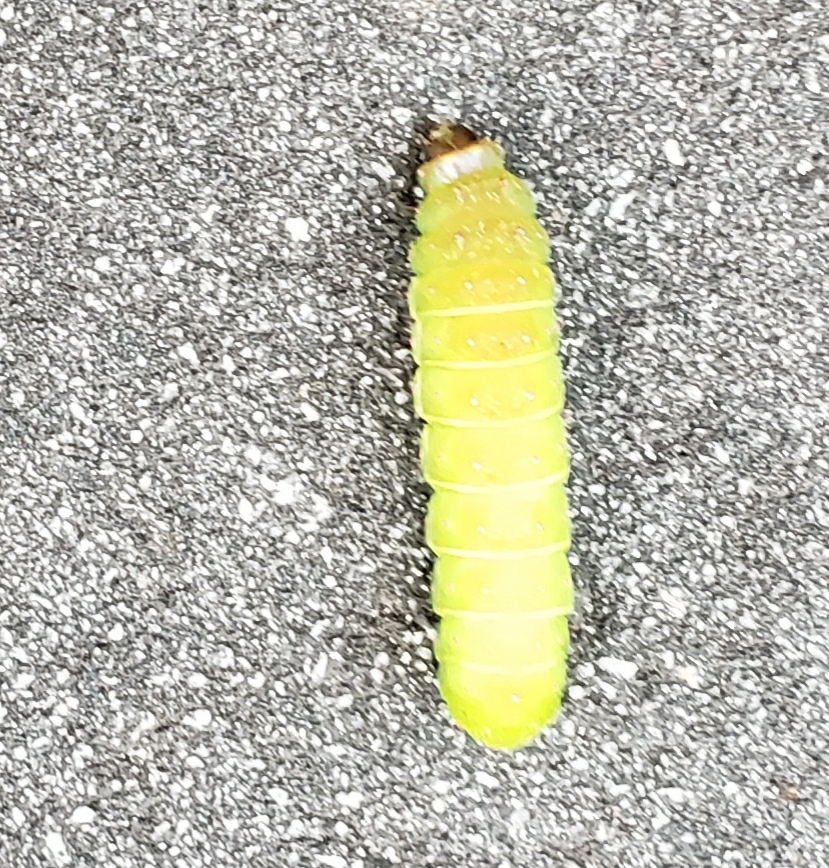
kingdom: Animalia
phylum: Arthropoda
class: Insecta
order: Lepidoptera
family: Saturniidae
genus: Actias
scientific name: Actias luna
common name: Luna moth
